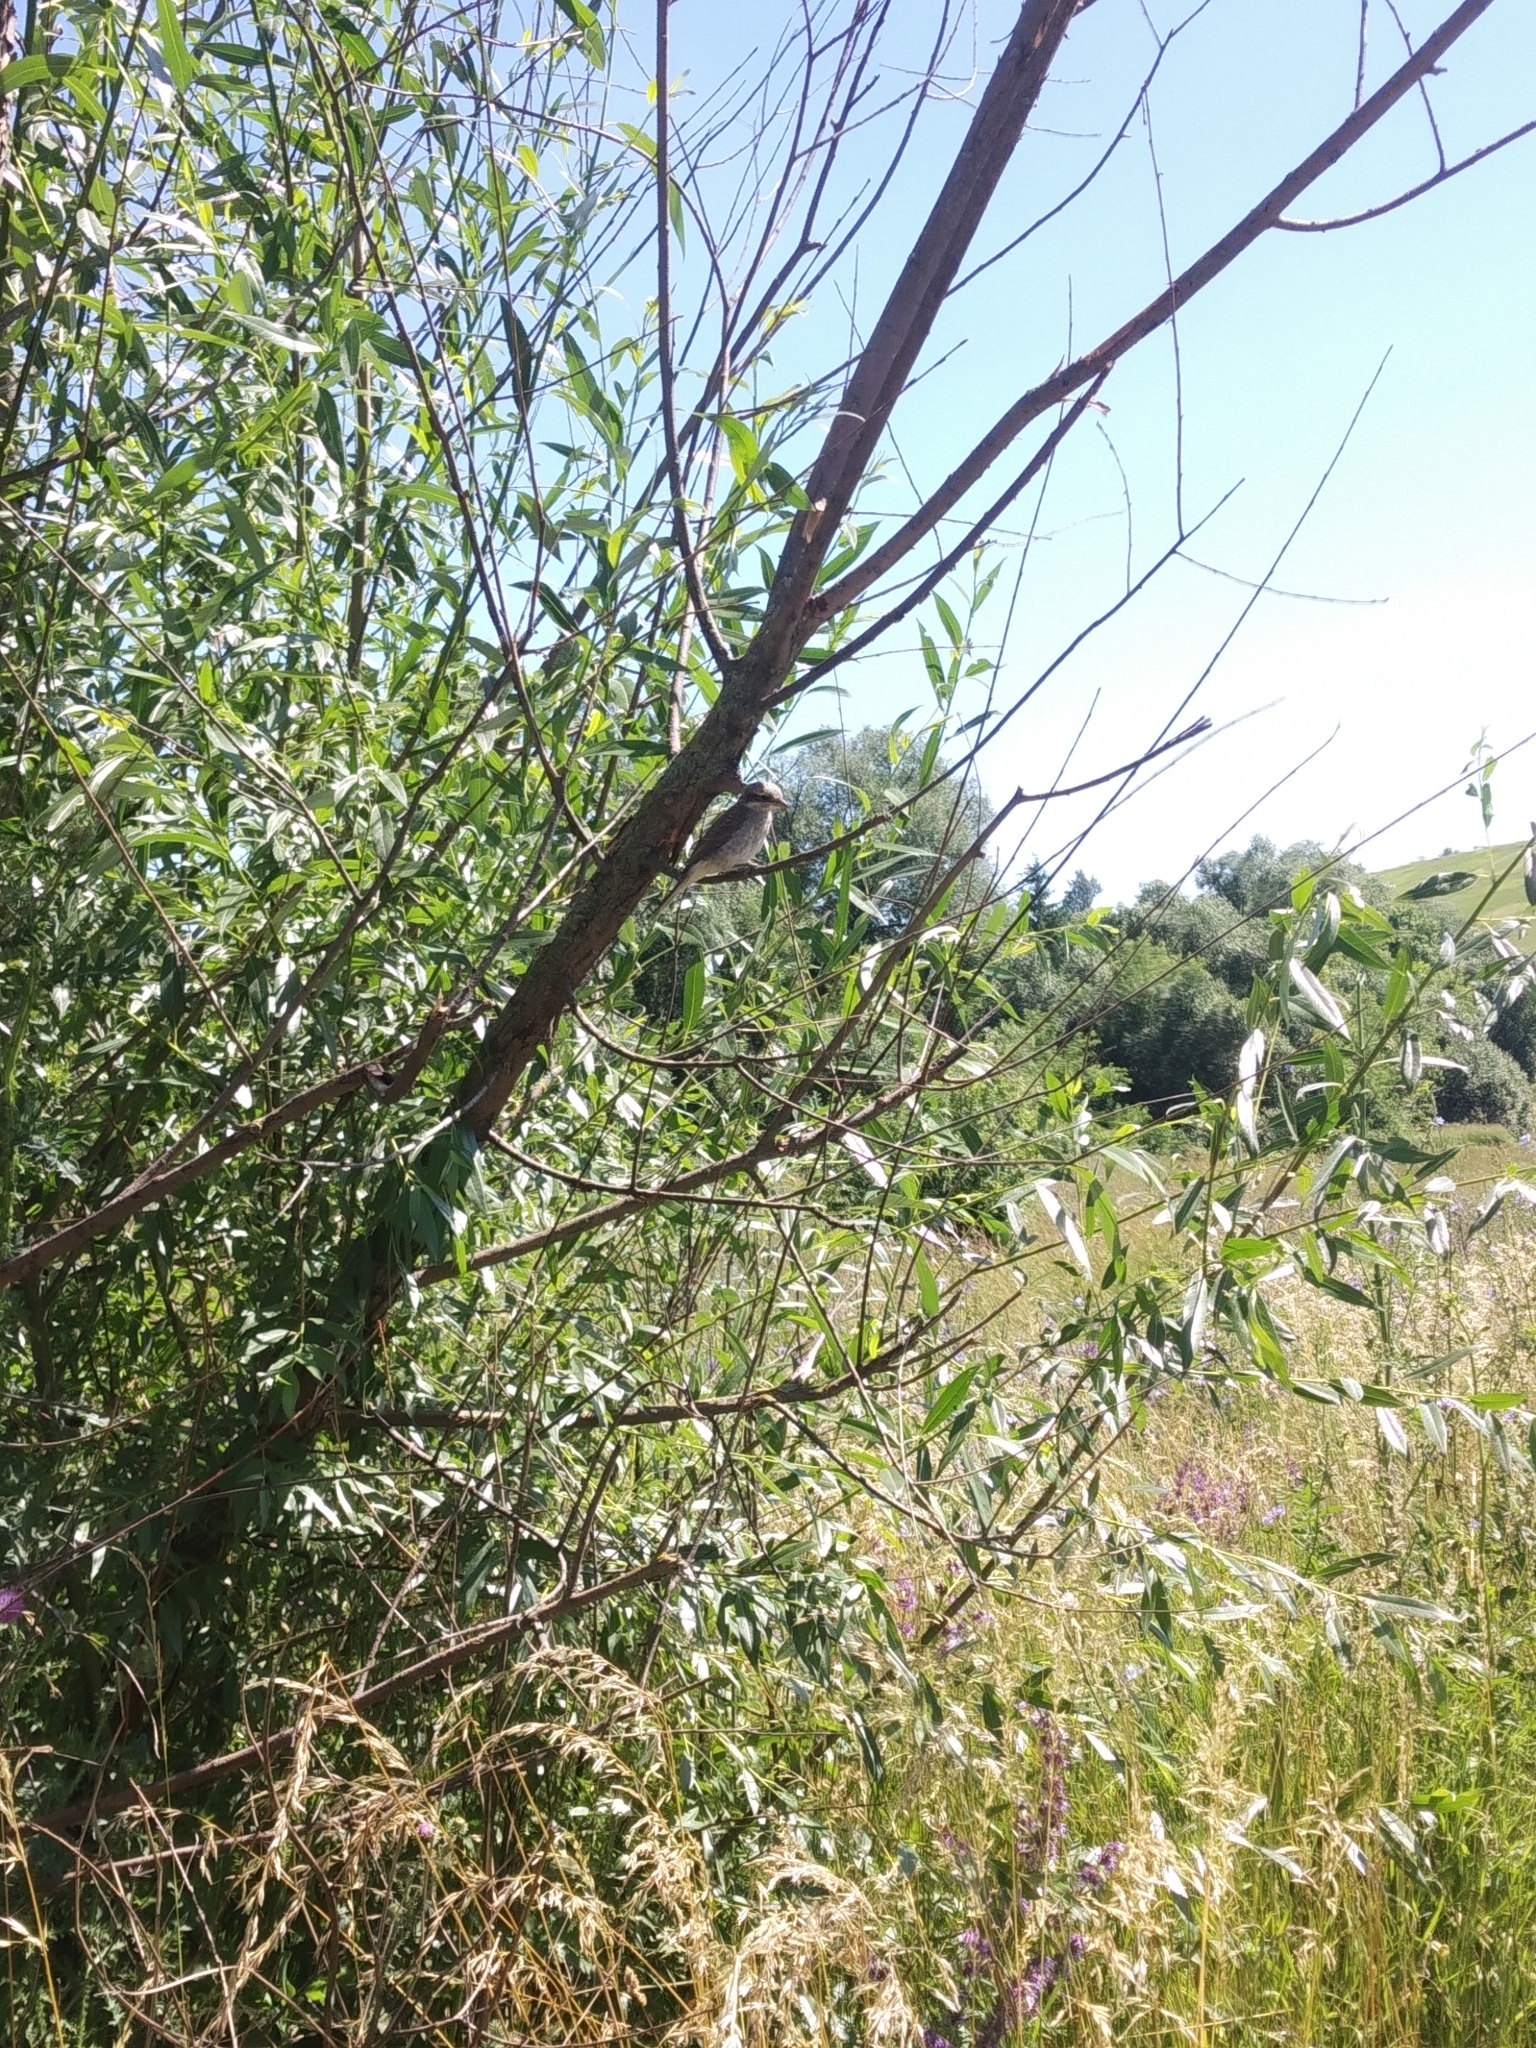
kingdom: Animalia
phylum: Chordata
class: Aves
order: Passeriformes
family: Laniidae
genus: Lanius
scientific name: Lanius collurio
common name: Red-backed shrike
